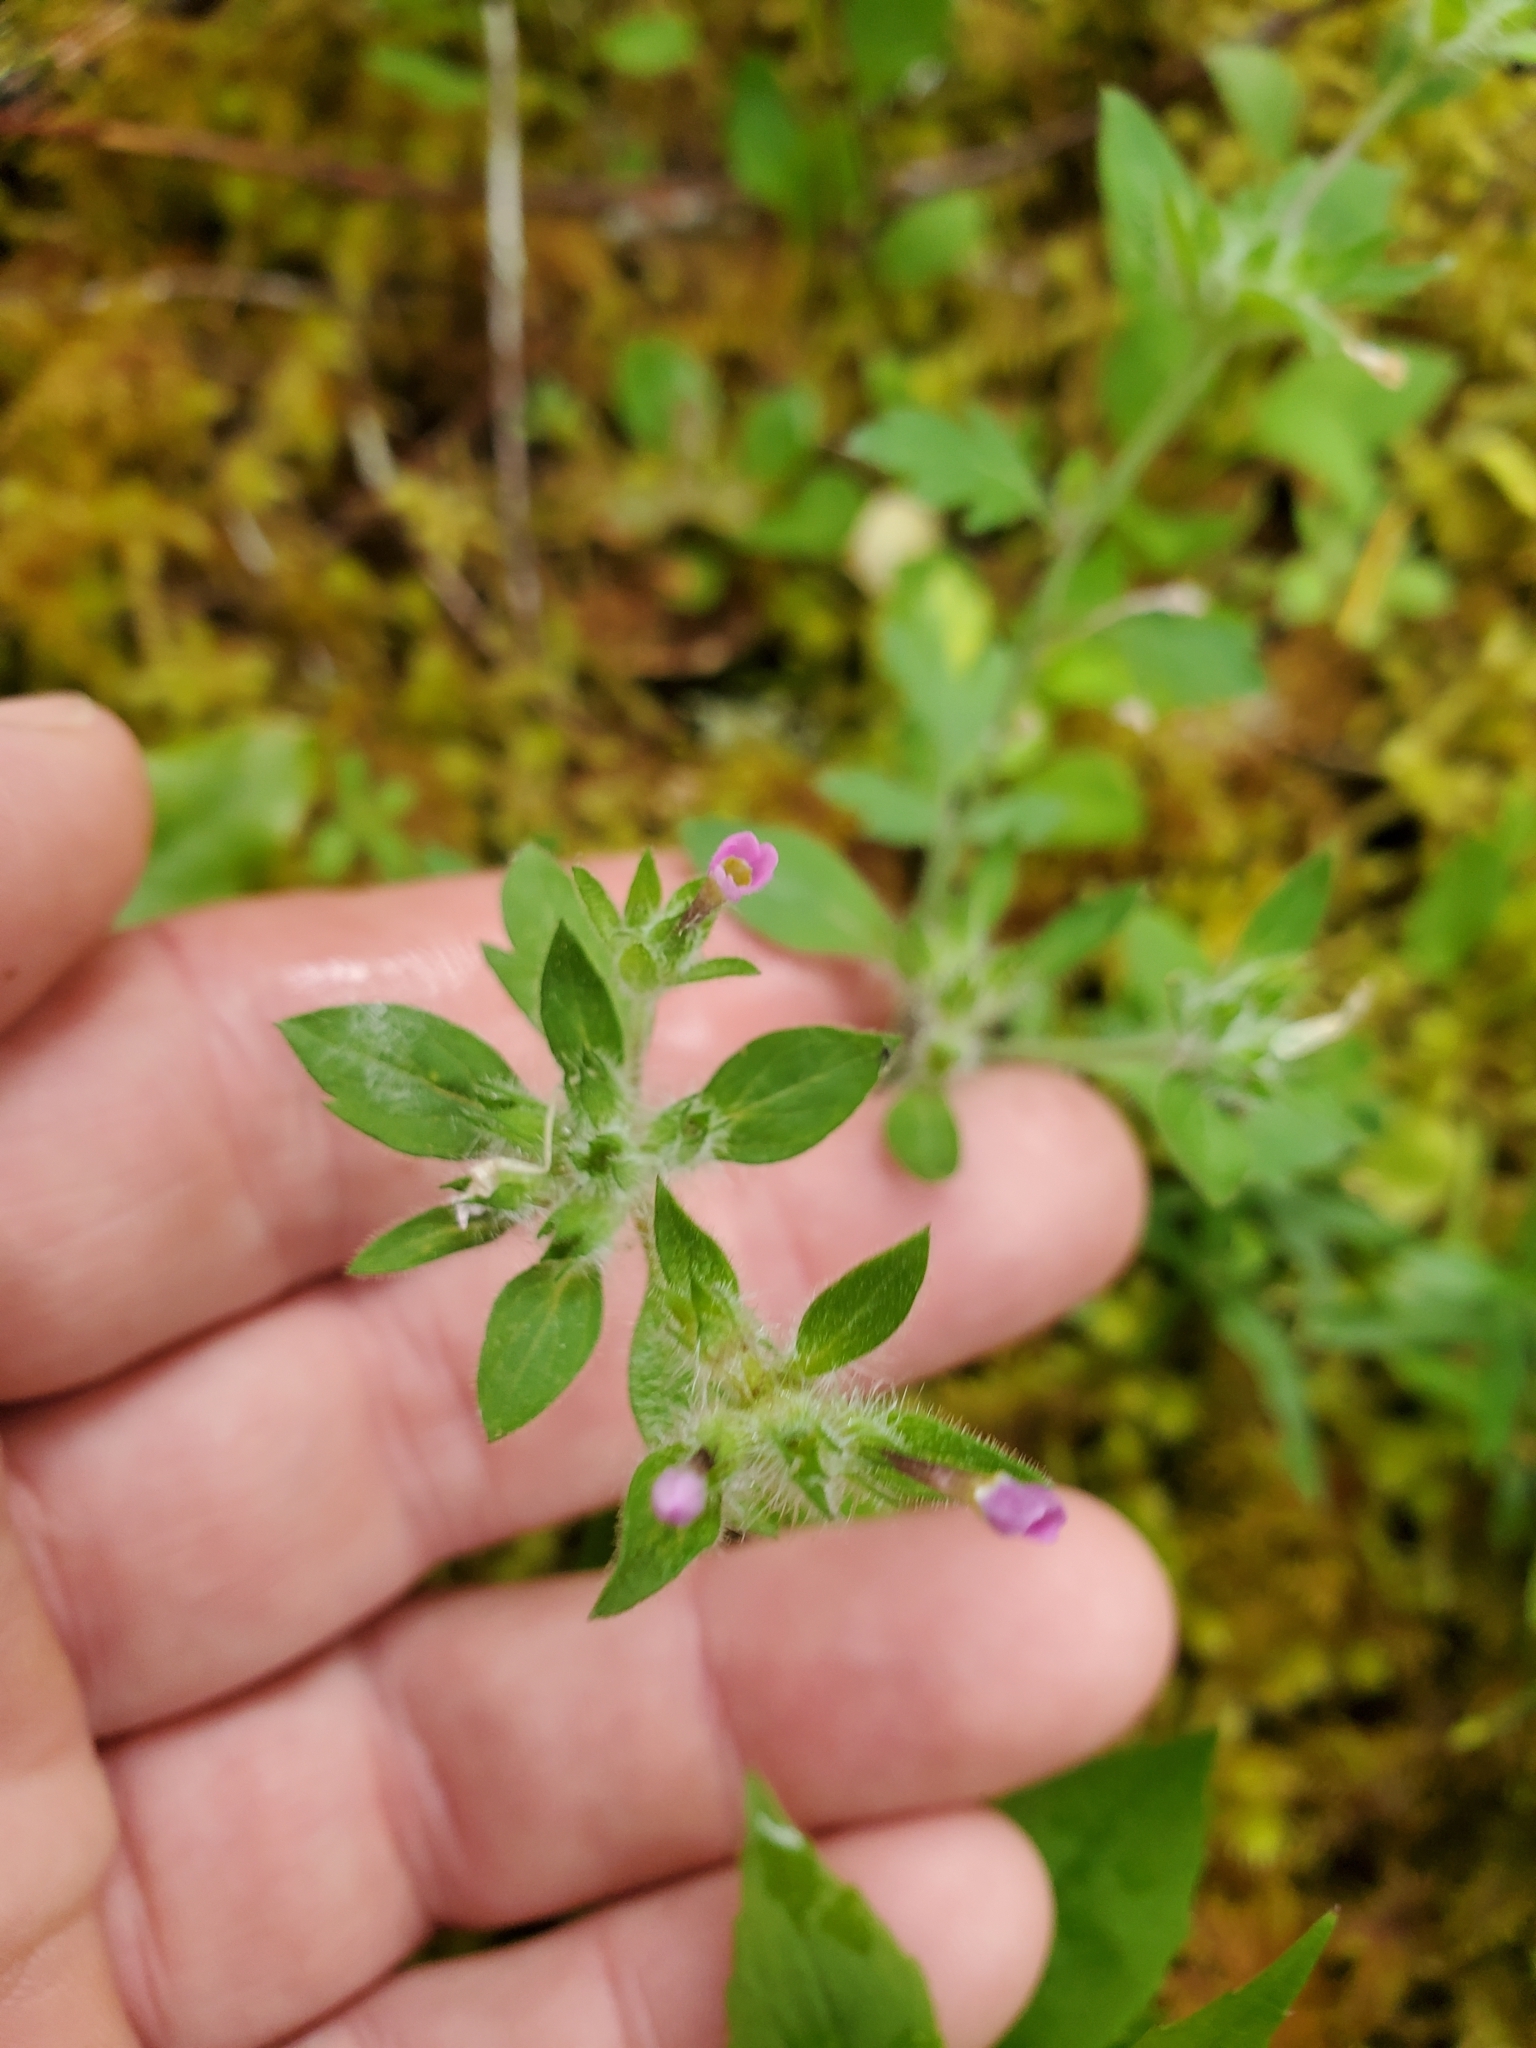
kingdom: Plantae
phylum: Tracheophyta
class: Magnoliopsida
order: Ericales
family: Polemoniaceae
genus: Collomia
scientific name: Collomia heterophylla
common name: Variable-leaved collomia
